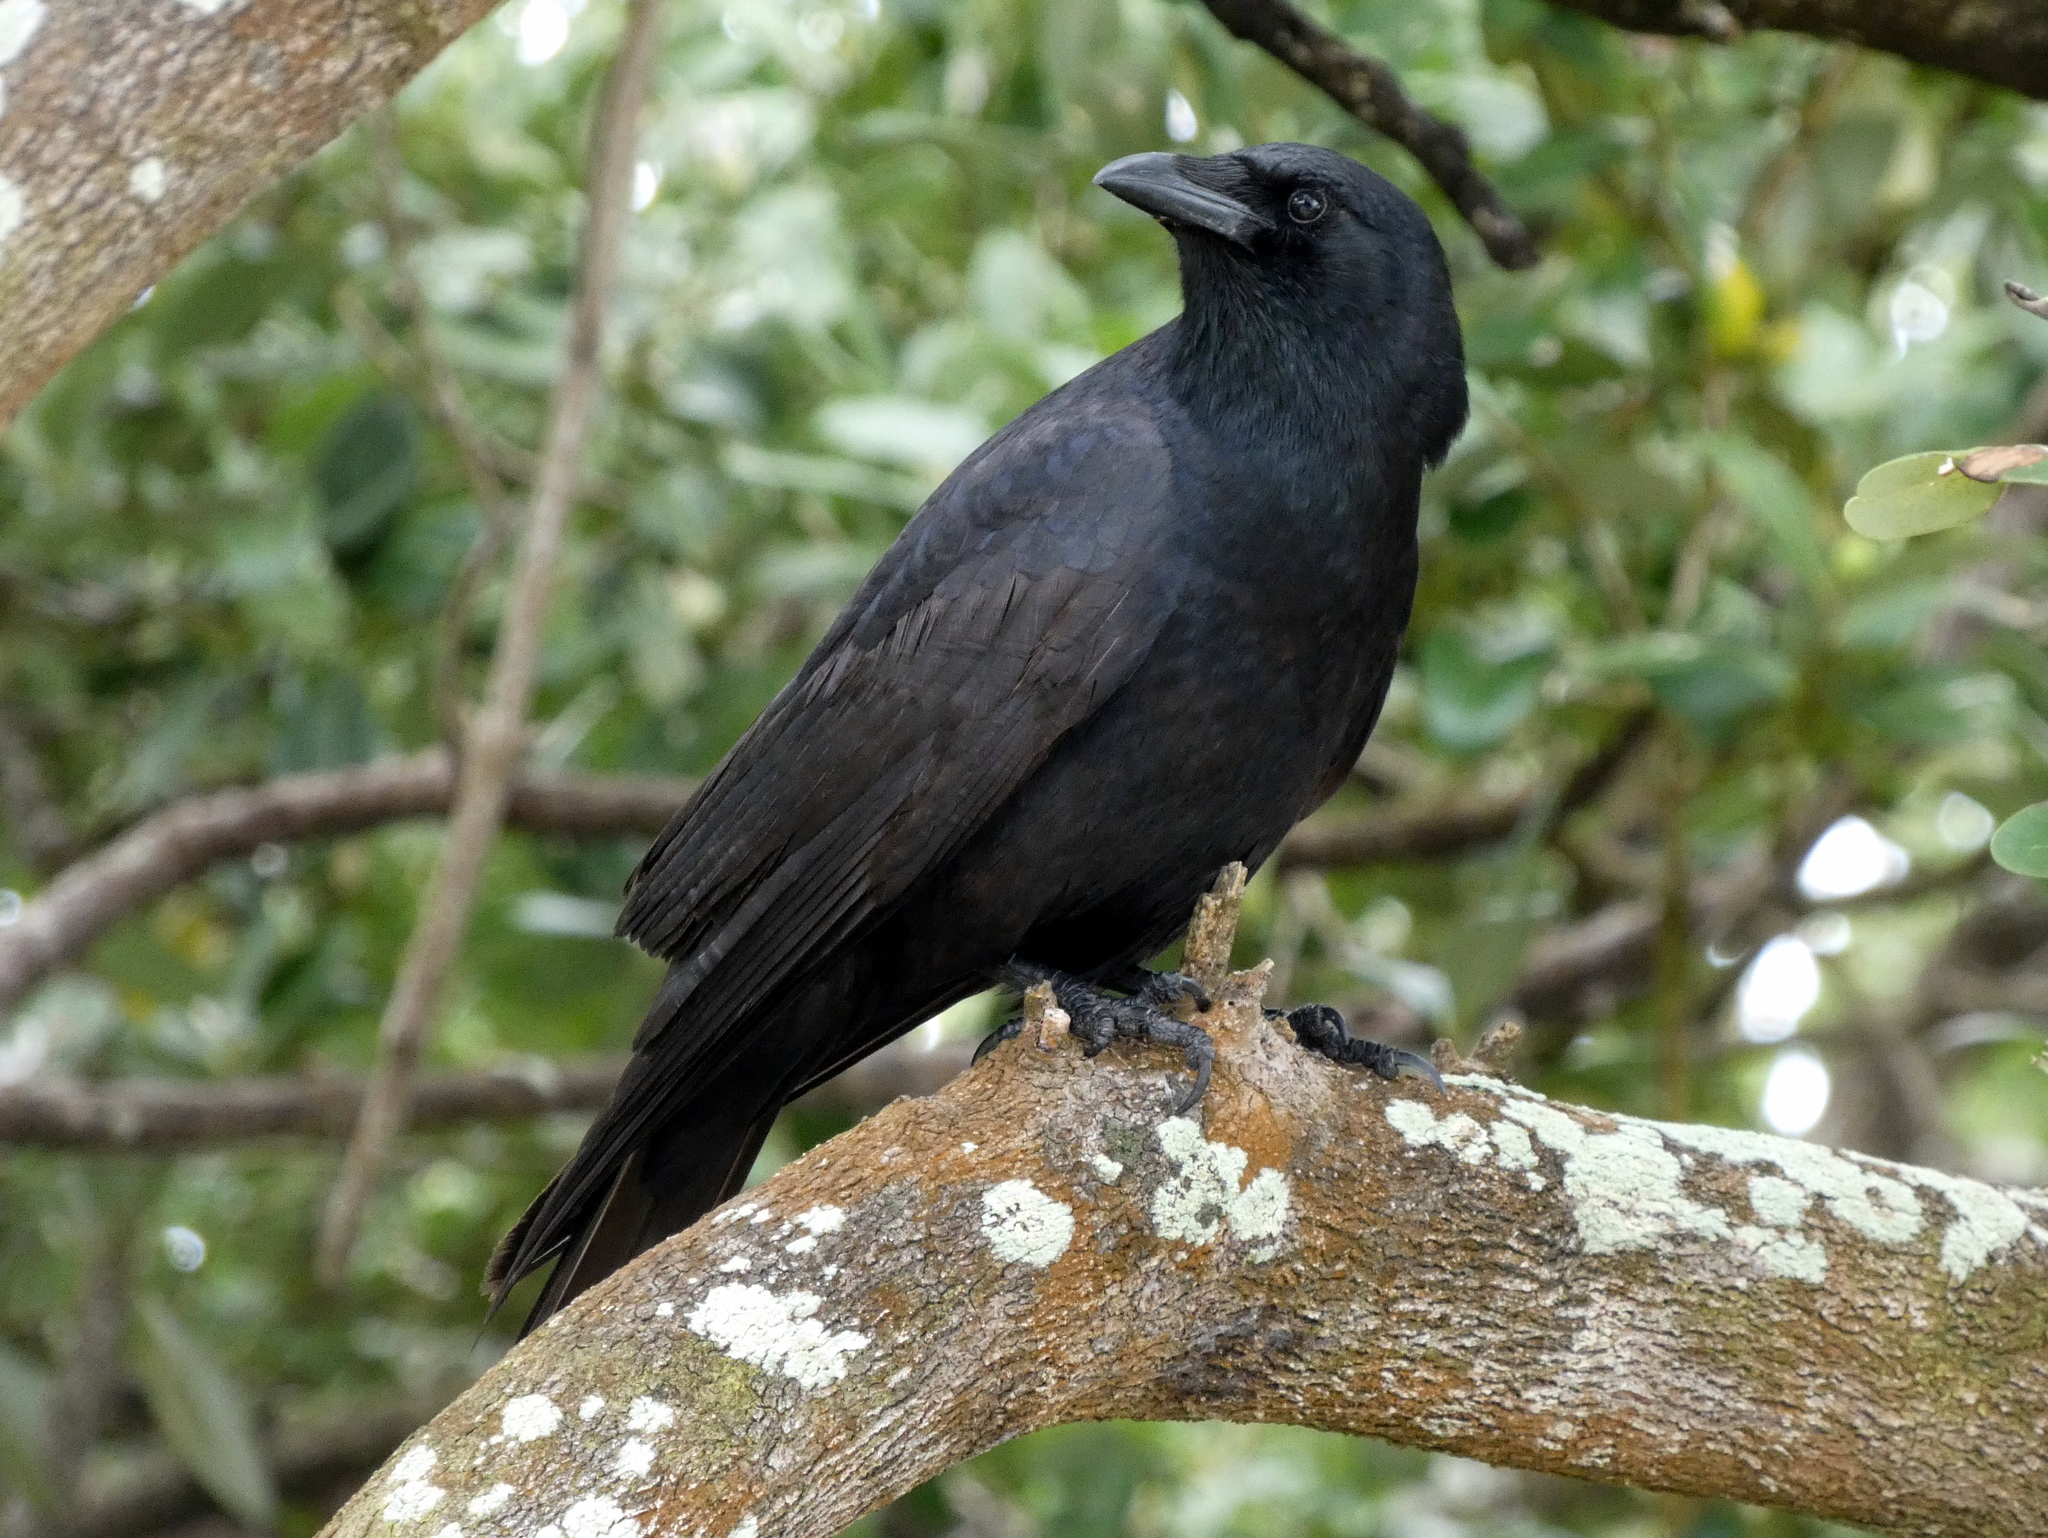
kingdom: Animalia
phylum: Chordata
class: Aves
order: Passeriformes
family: Corvidae
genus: Corvus
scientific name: Corvus ossifragus
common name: Fish crow
